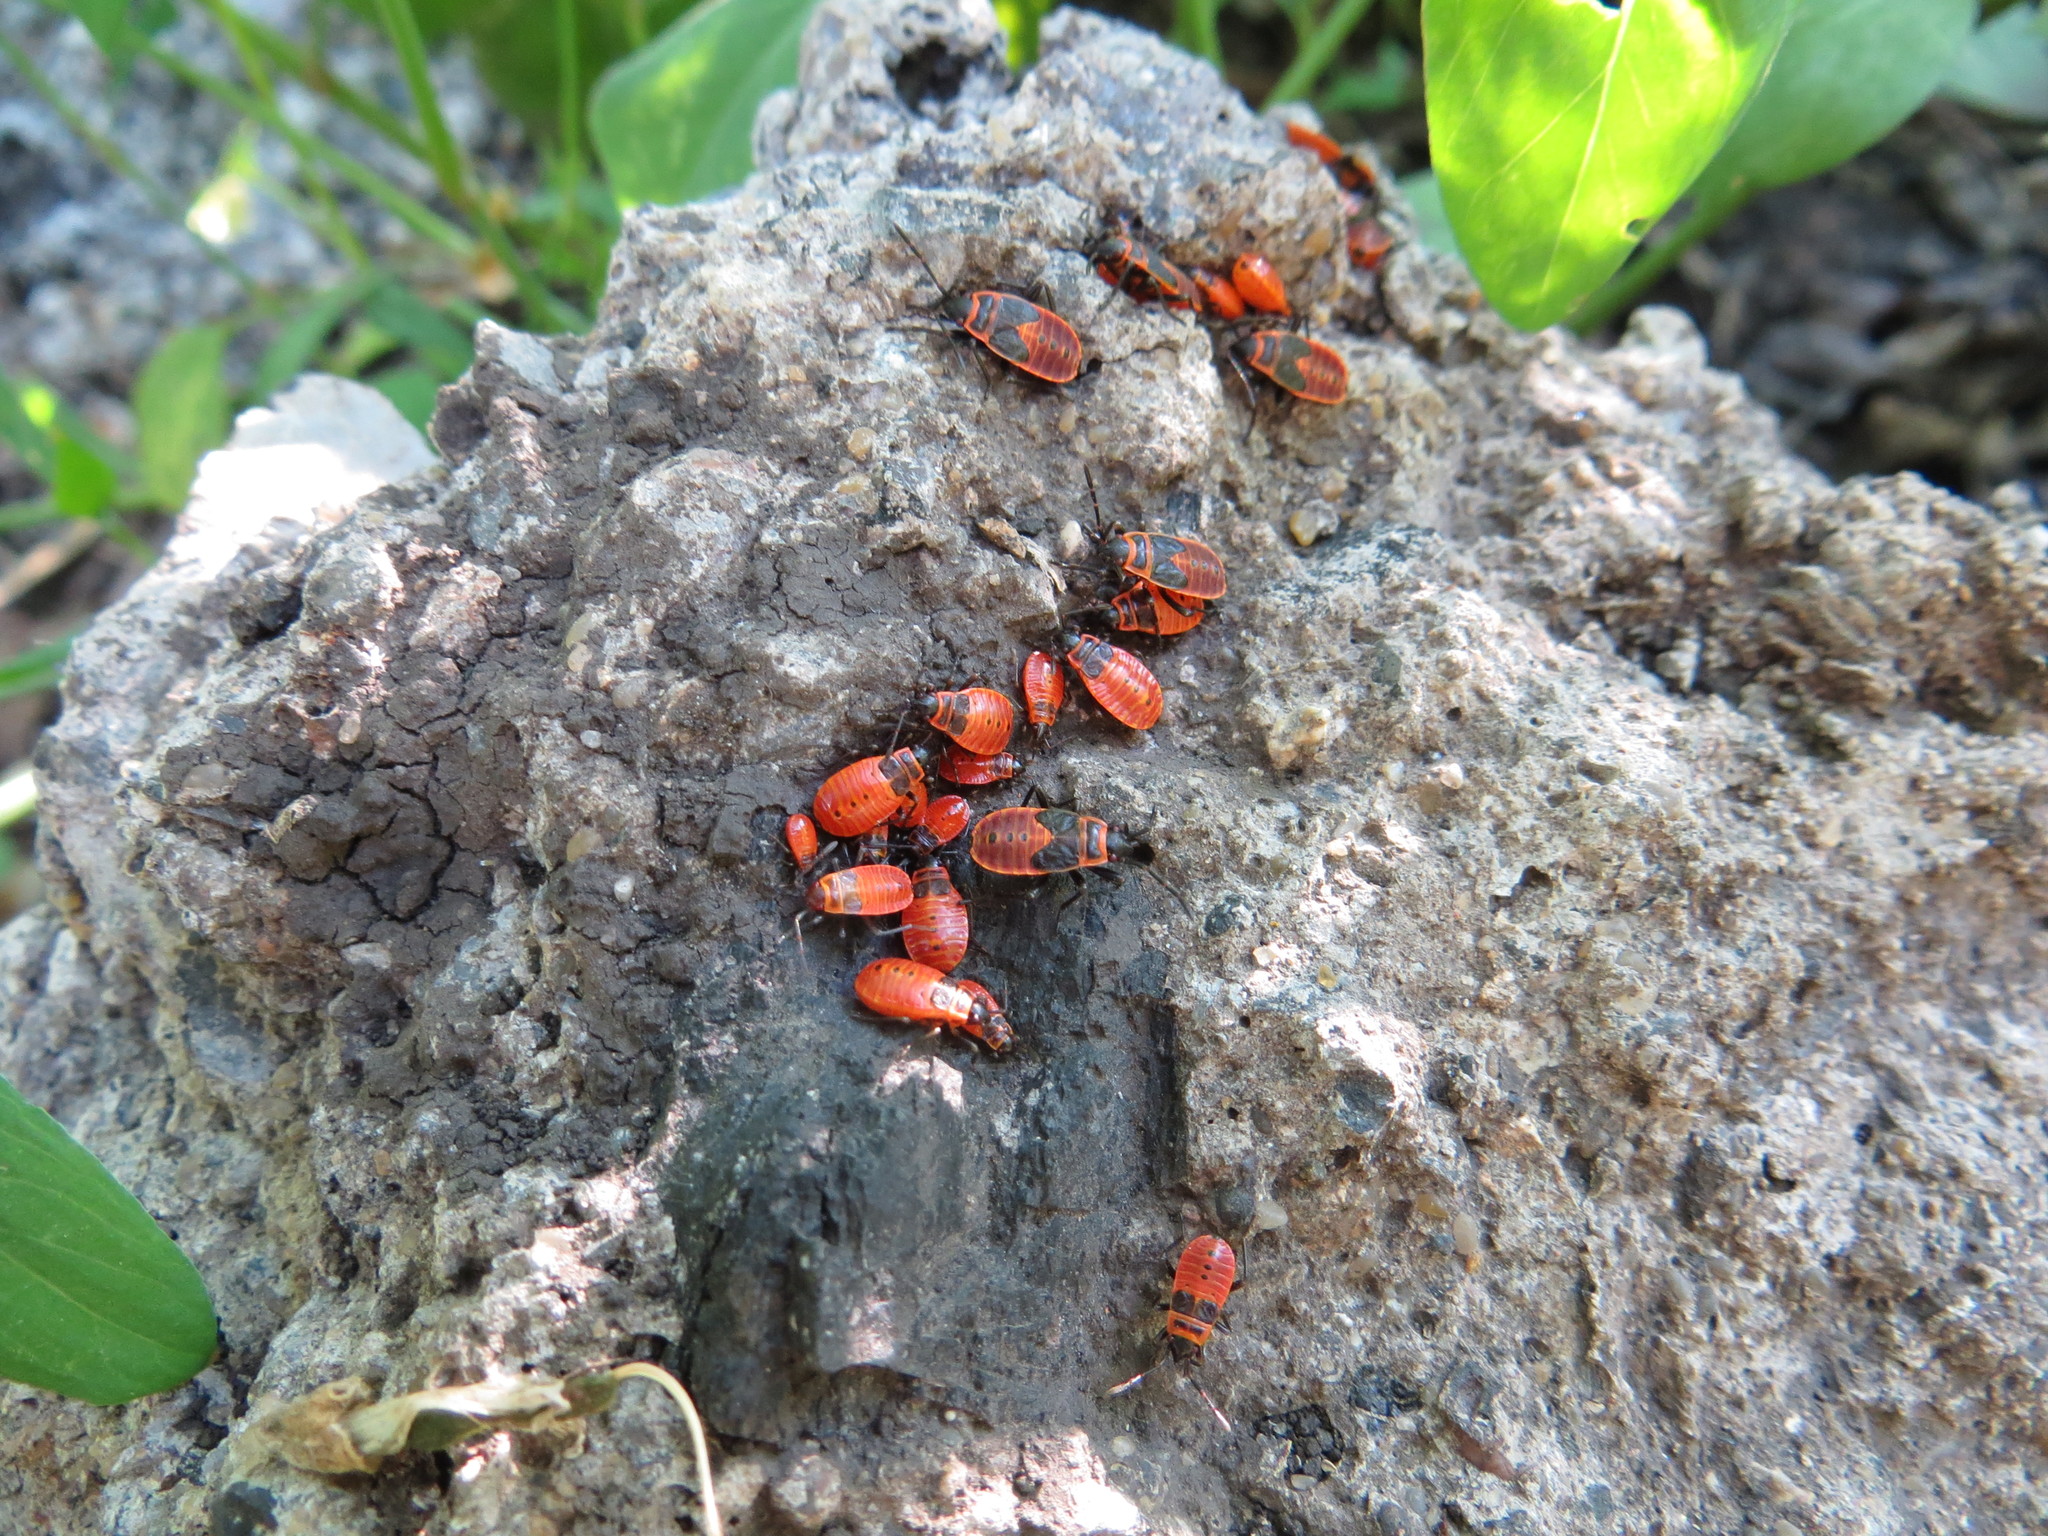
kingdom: Animalia
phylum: Arthropoda
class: Insecta
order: Hemiptera
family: Pyrrhocoridae
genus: Pyrrhocoris
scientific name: Pyrrhocoris apterus
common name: Firebug
